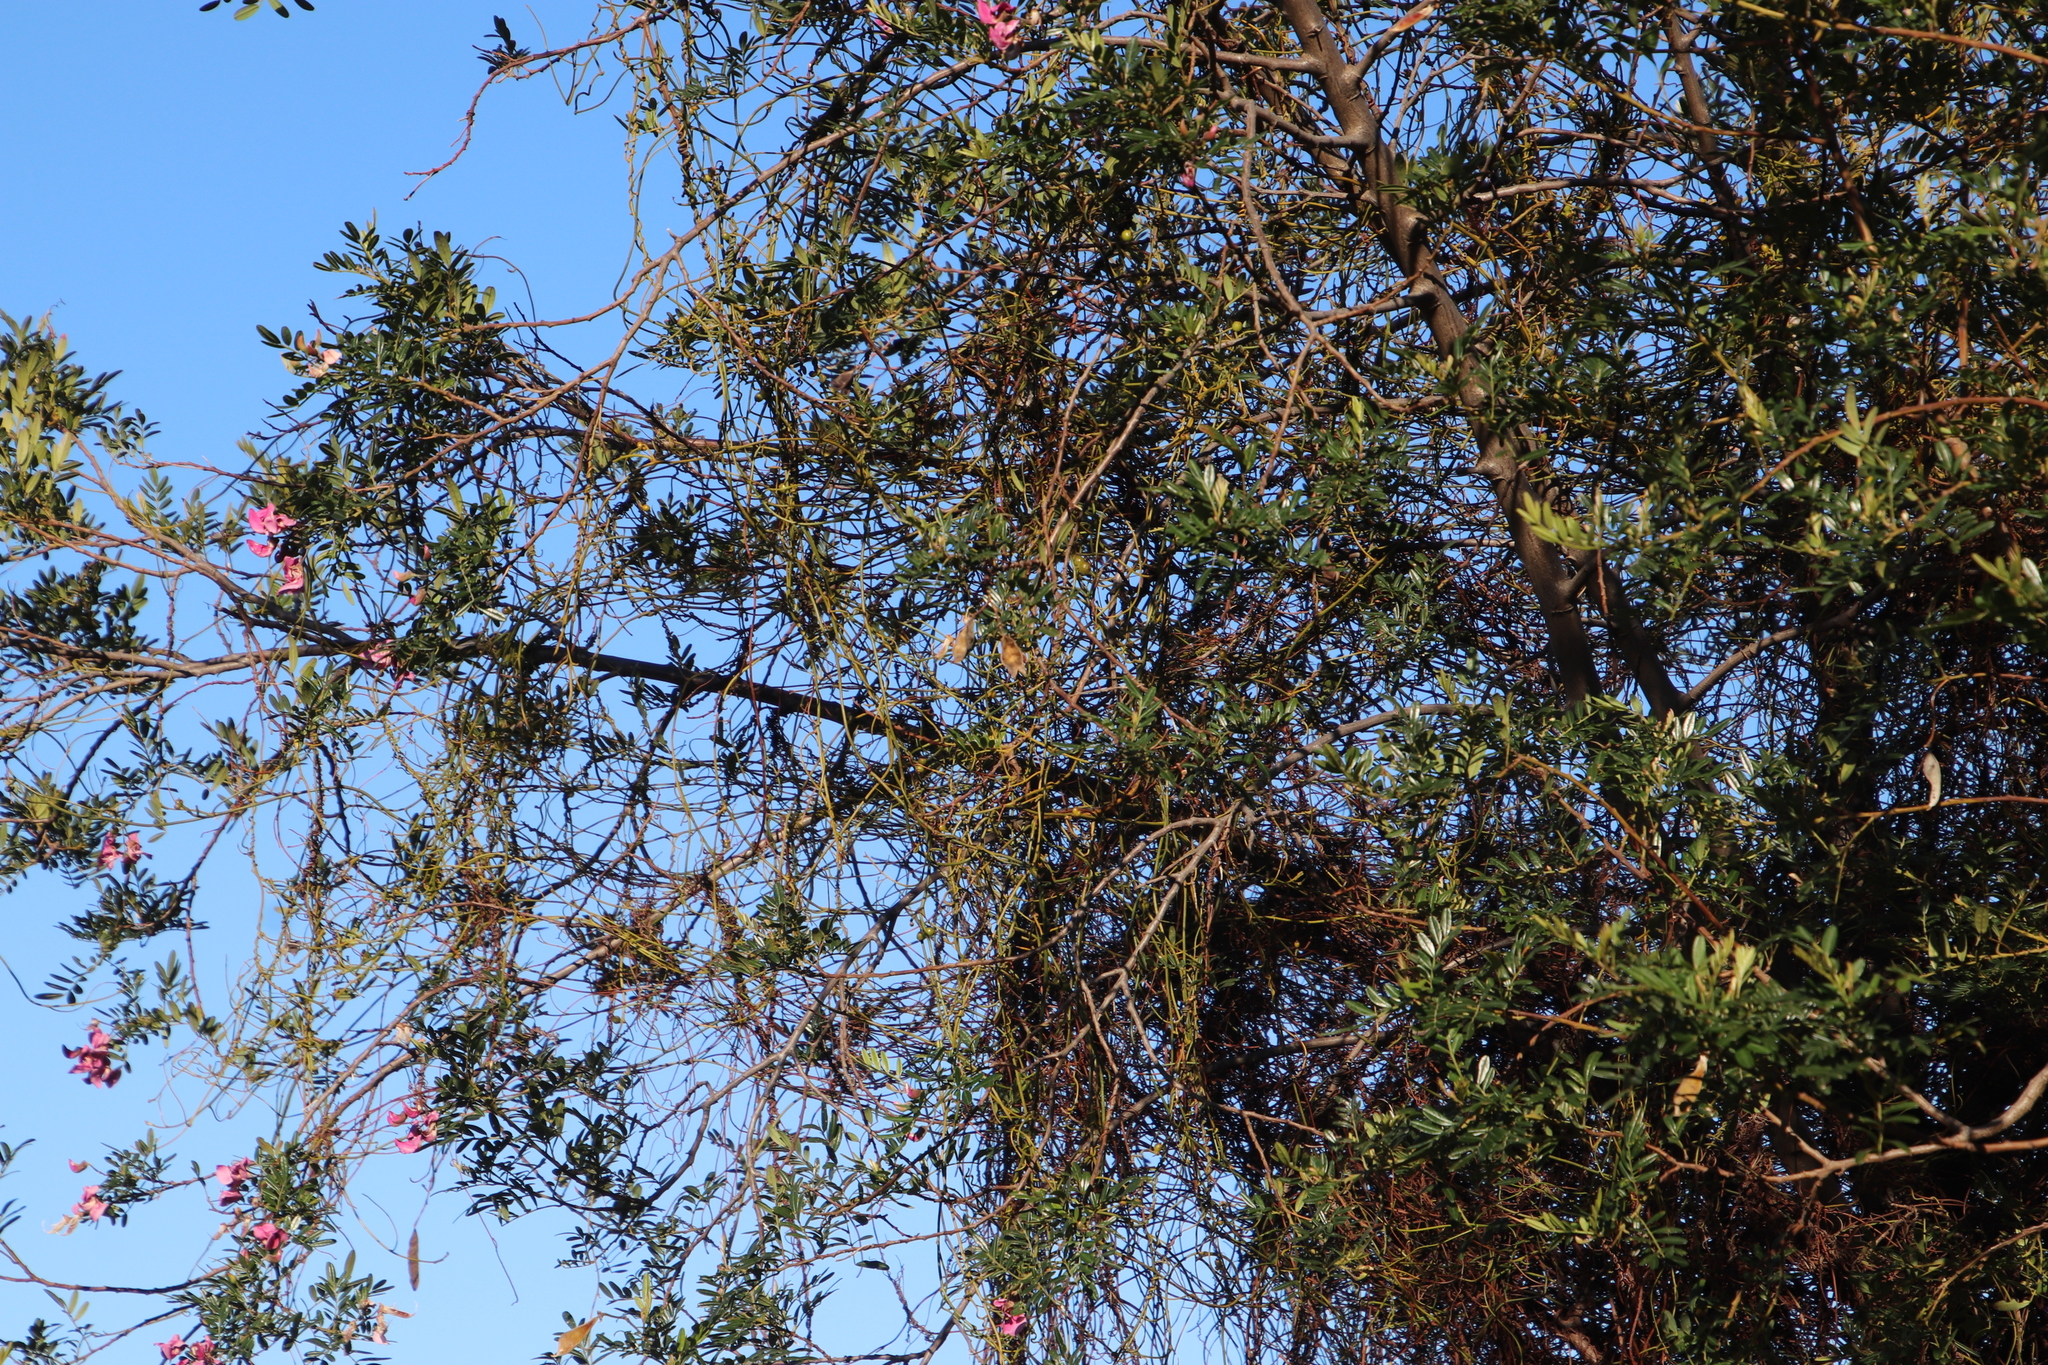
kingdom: Plantae
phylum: Tracheophyta
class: Magnoliopsida
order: Laurales
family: Lauraceae
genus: Cassytha
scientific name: Cassytha ciliolata
